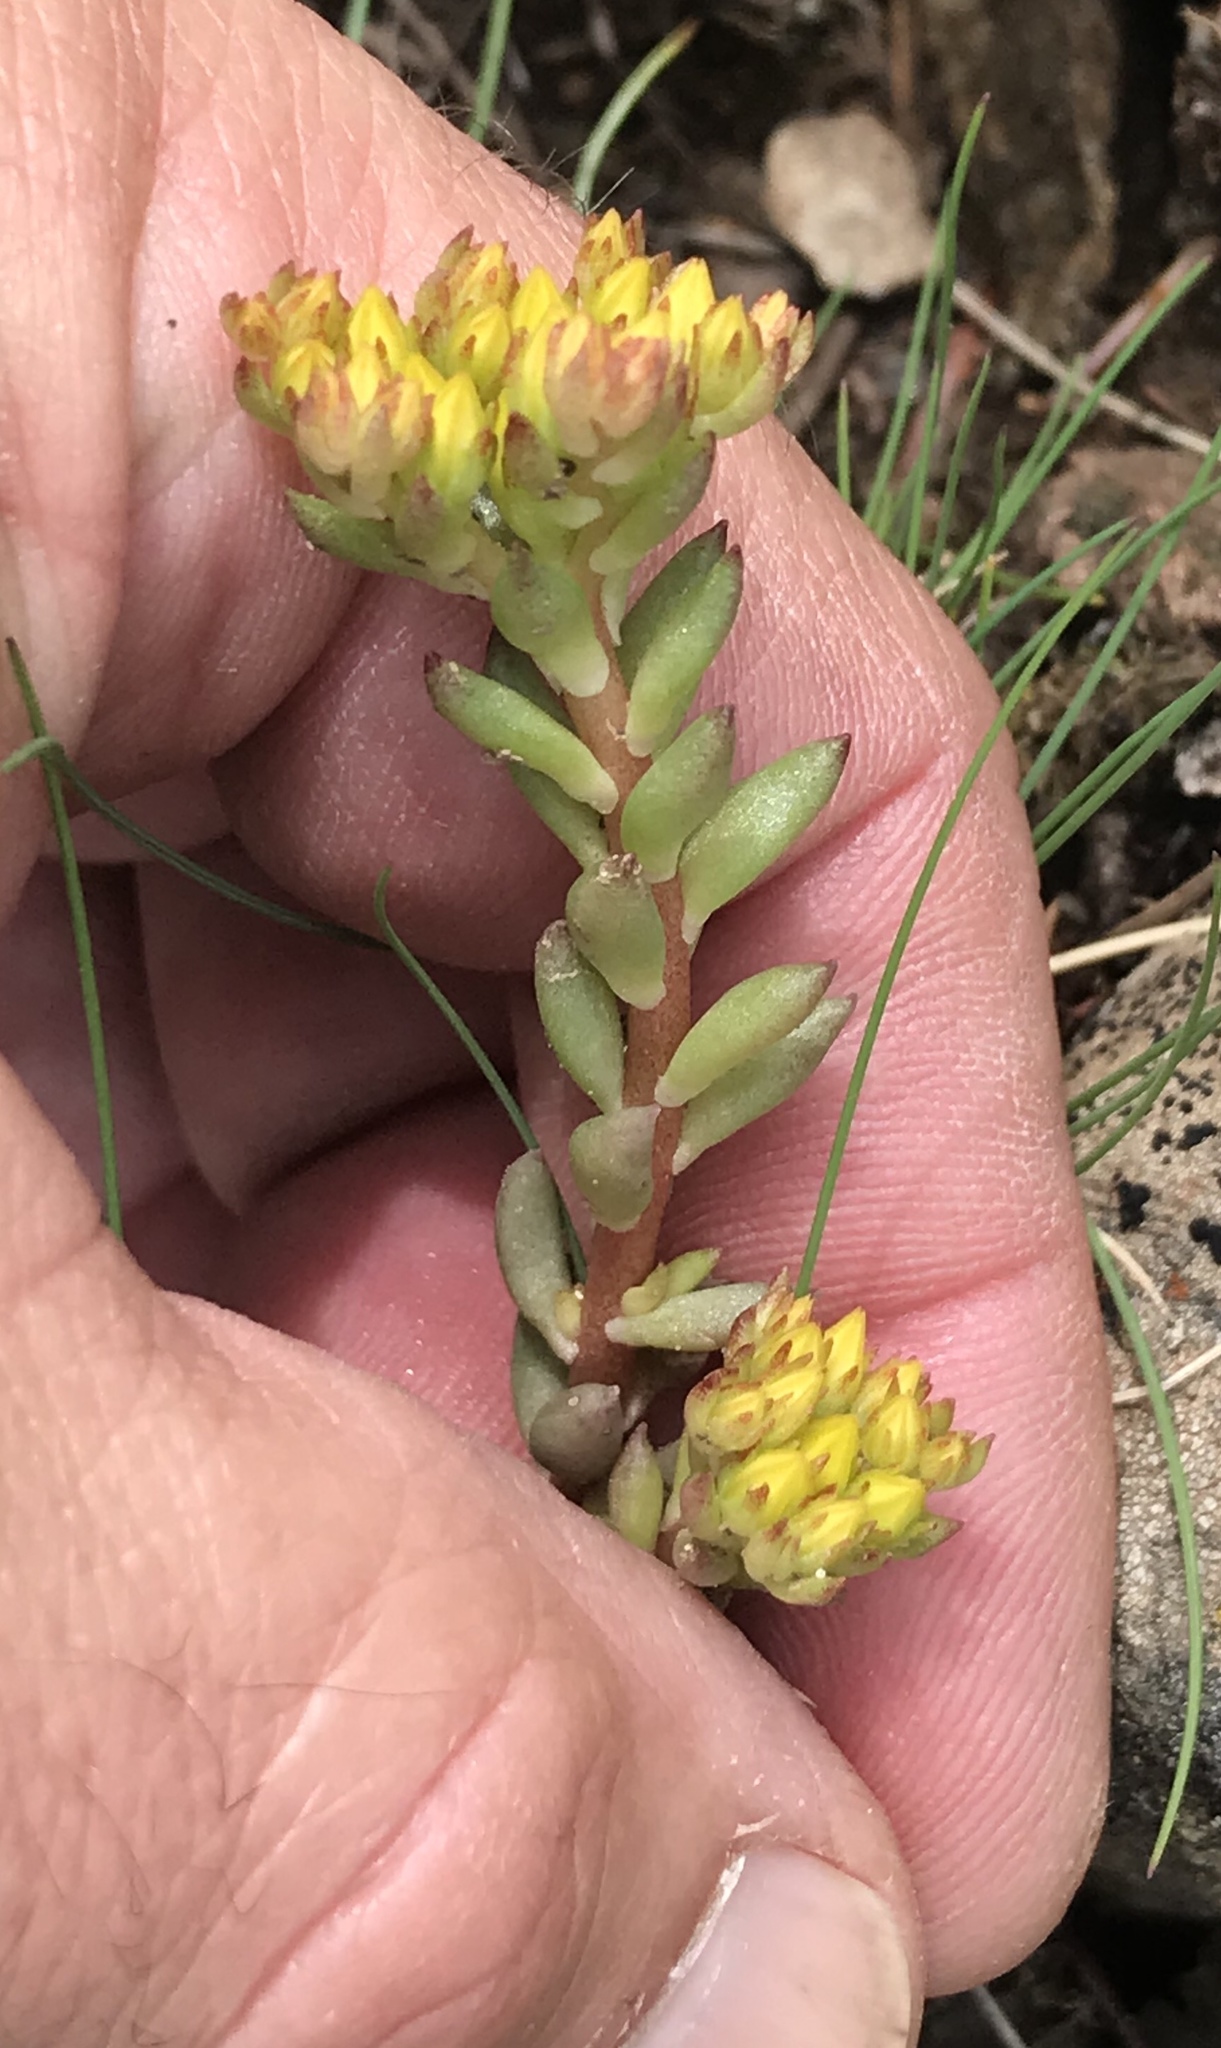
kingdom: Plantae
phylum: Tracheophyta
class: Magnoliopsida
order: Saxifragales
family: Crassulaceae
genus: Sedum
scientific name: Sedum lanceolatum
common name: Common stonecrop
